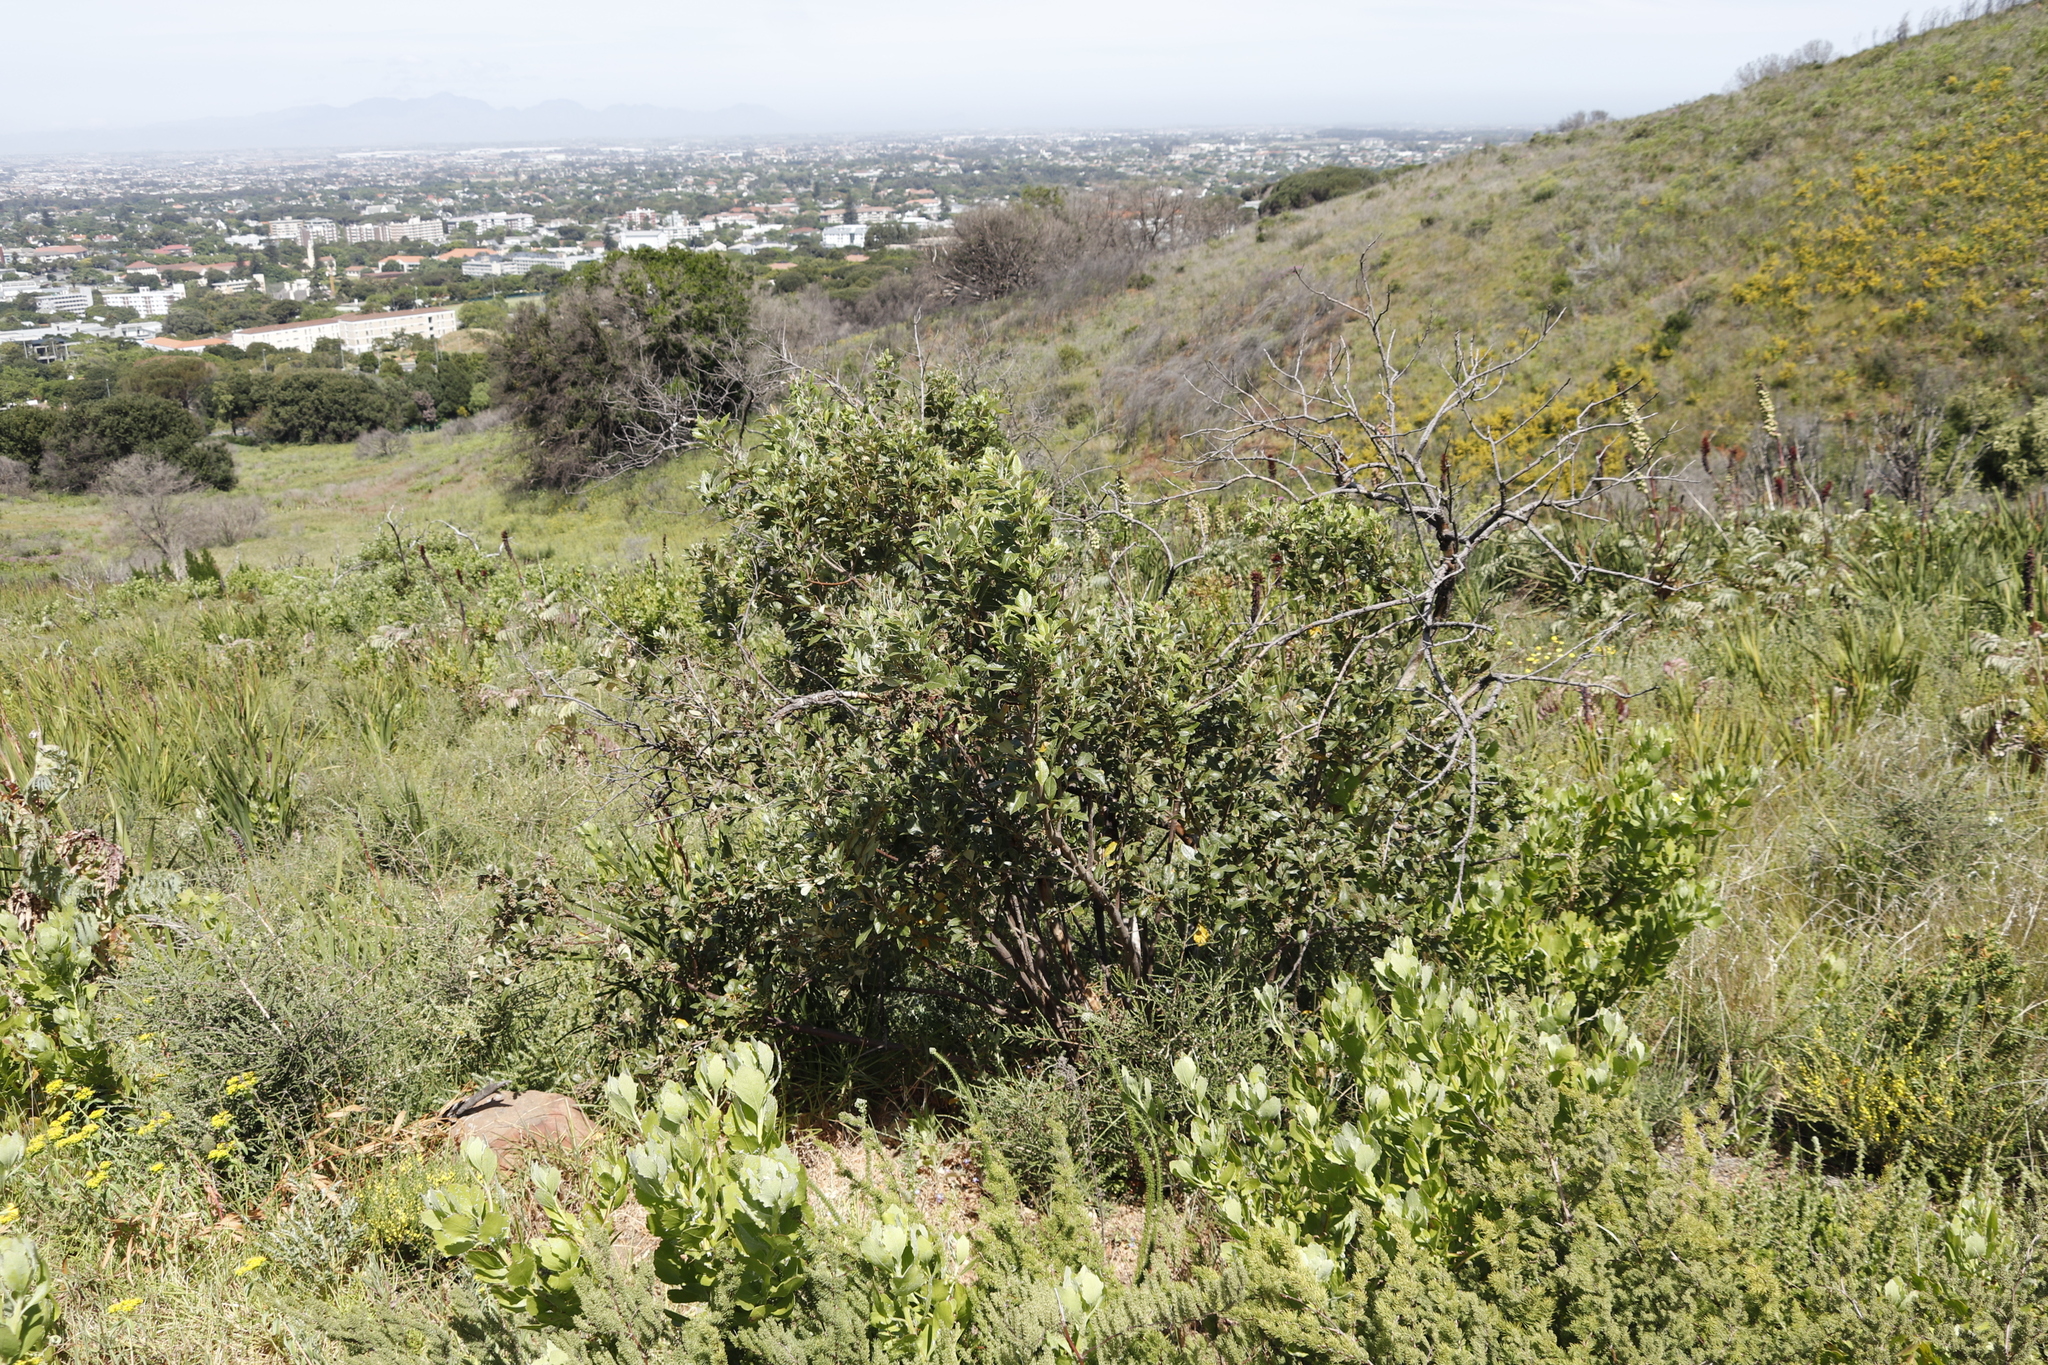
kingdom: Plantae
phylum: Tracheophyta
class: Magnoliopsida
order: Sapindales
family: Anacardiaceae
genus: Searsia
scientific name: Searsia tomentosa
